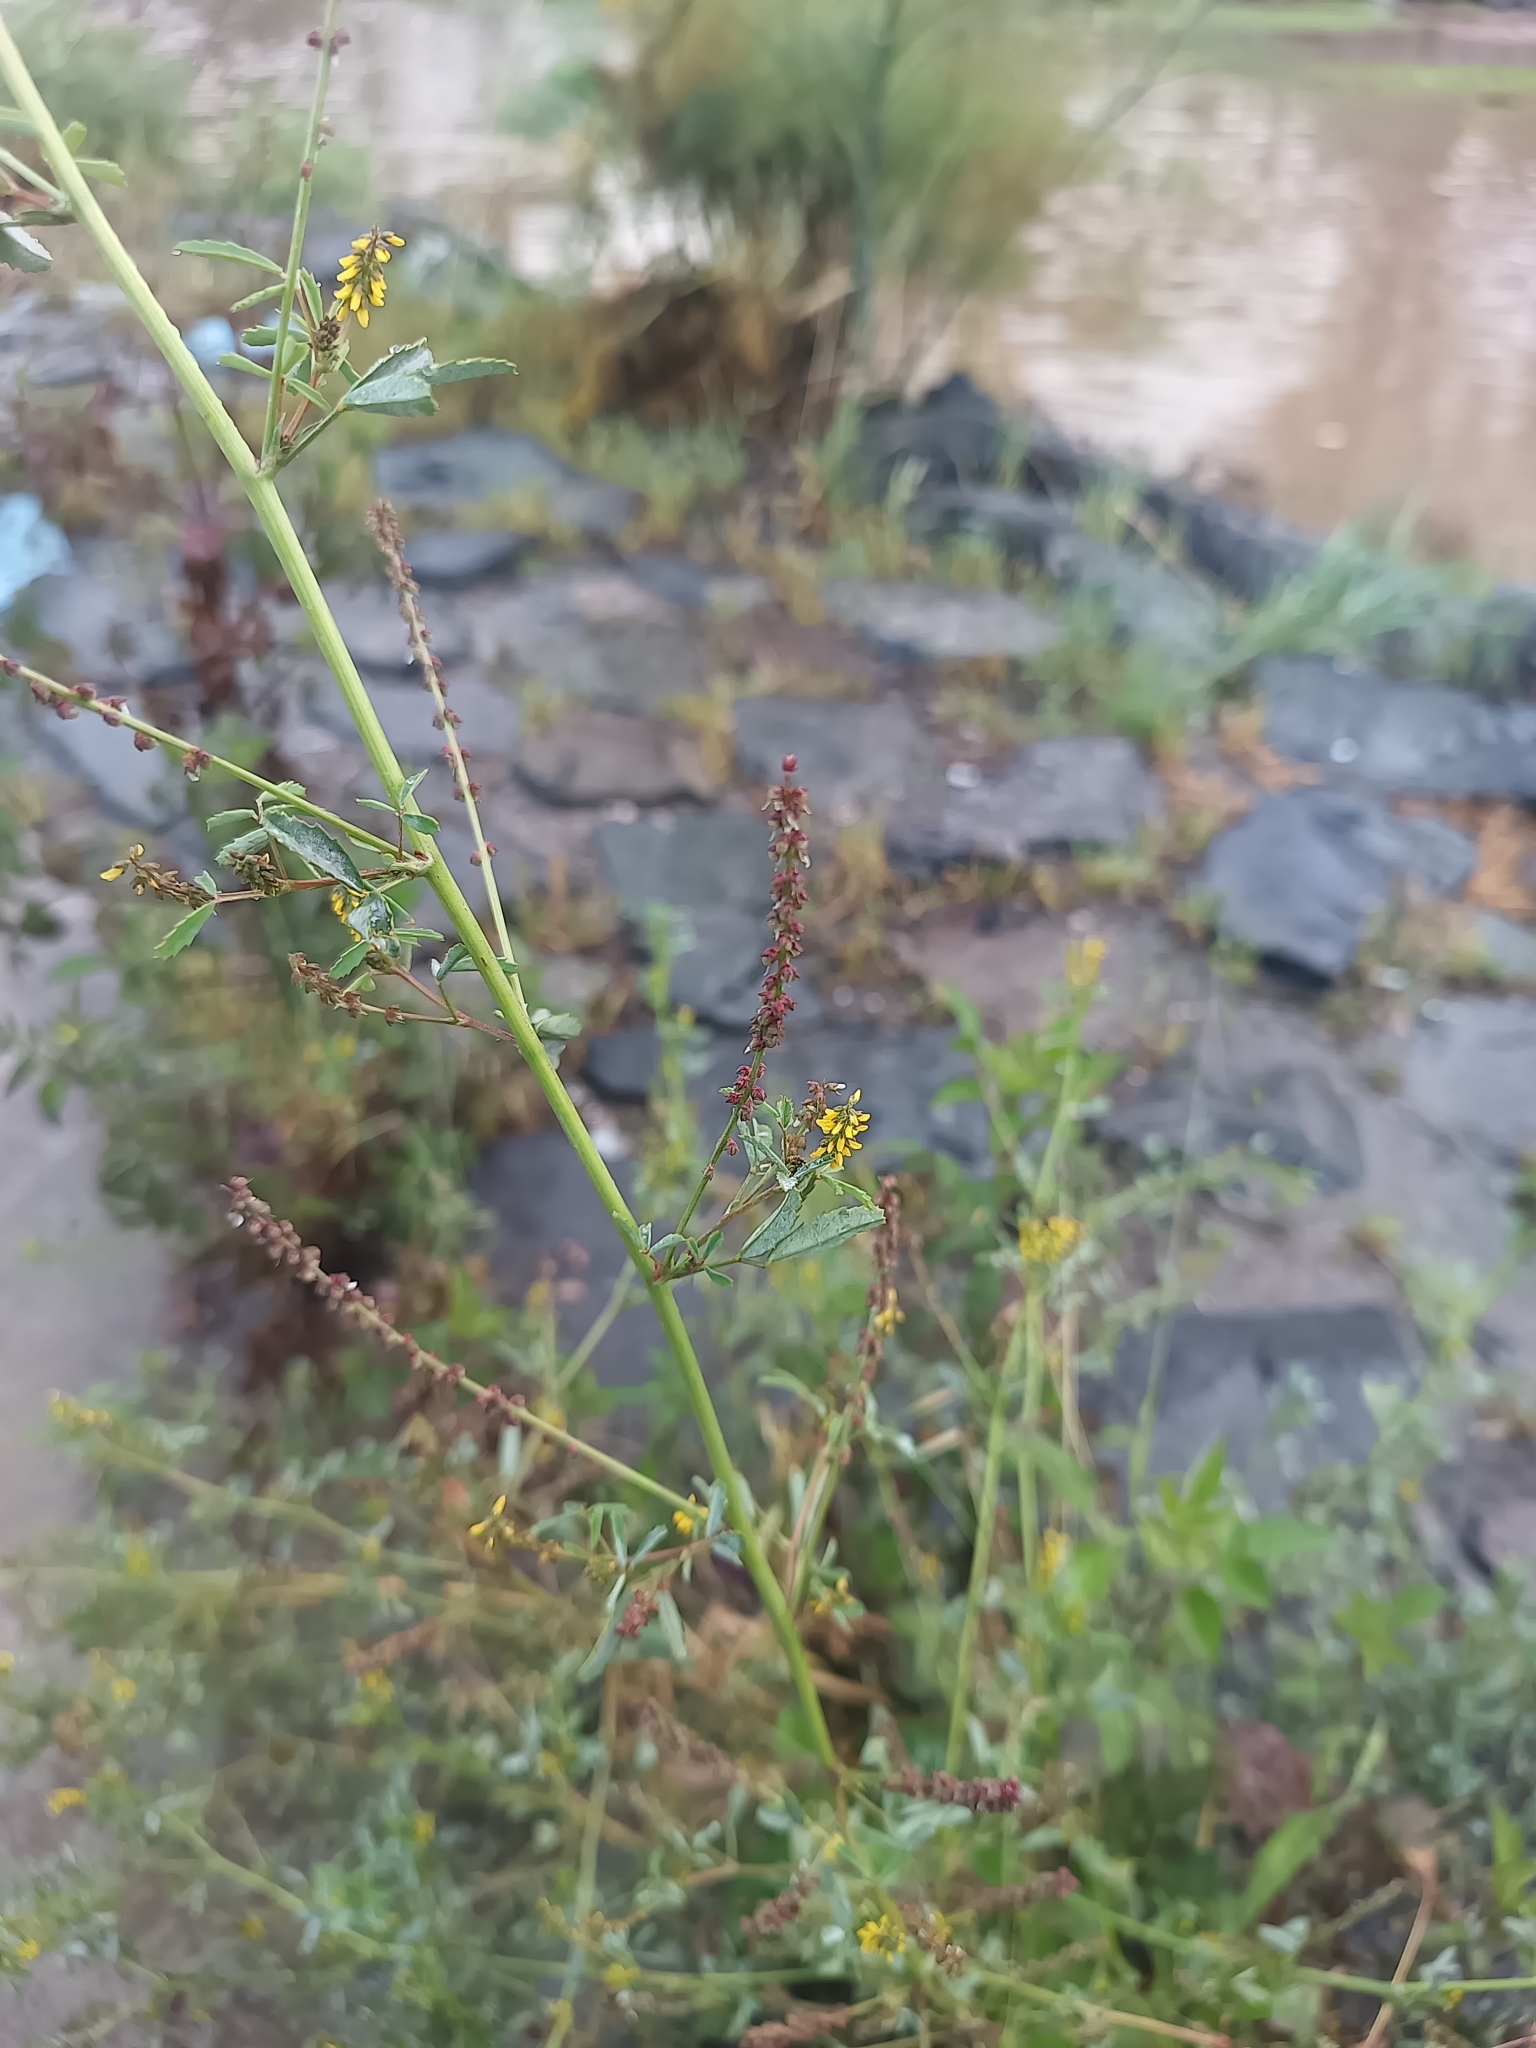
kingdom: Plantae
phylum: Tracheophyta
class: Magnoliopsida
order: Fabales
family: Fabaceae
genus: Melilotus
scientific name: Melilotus indicus
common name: Small melilot
